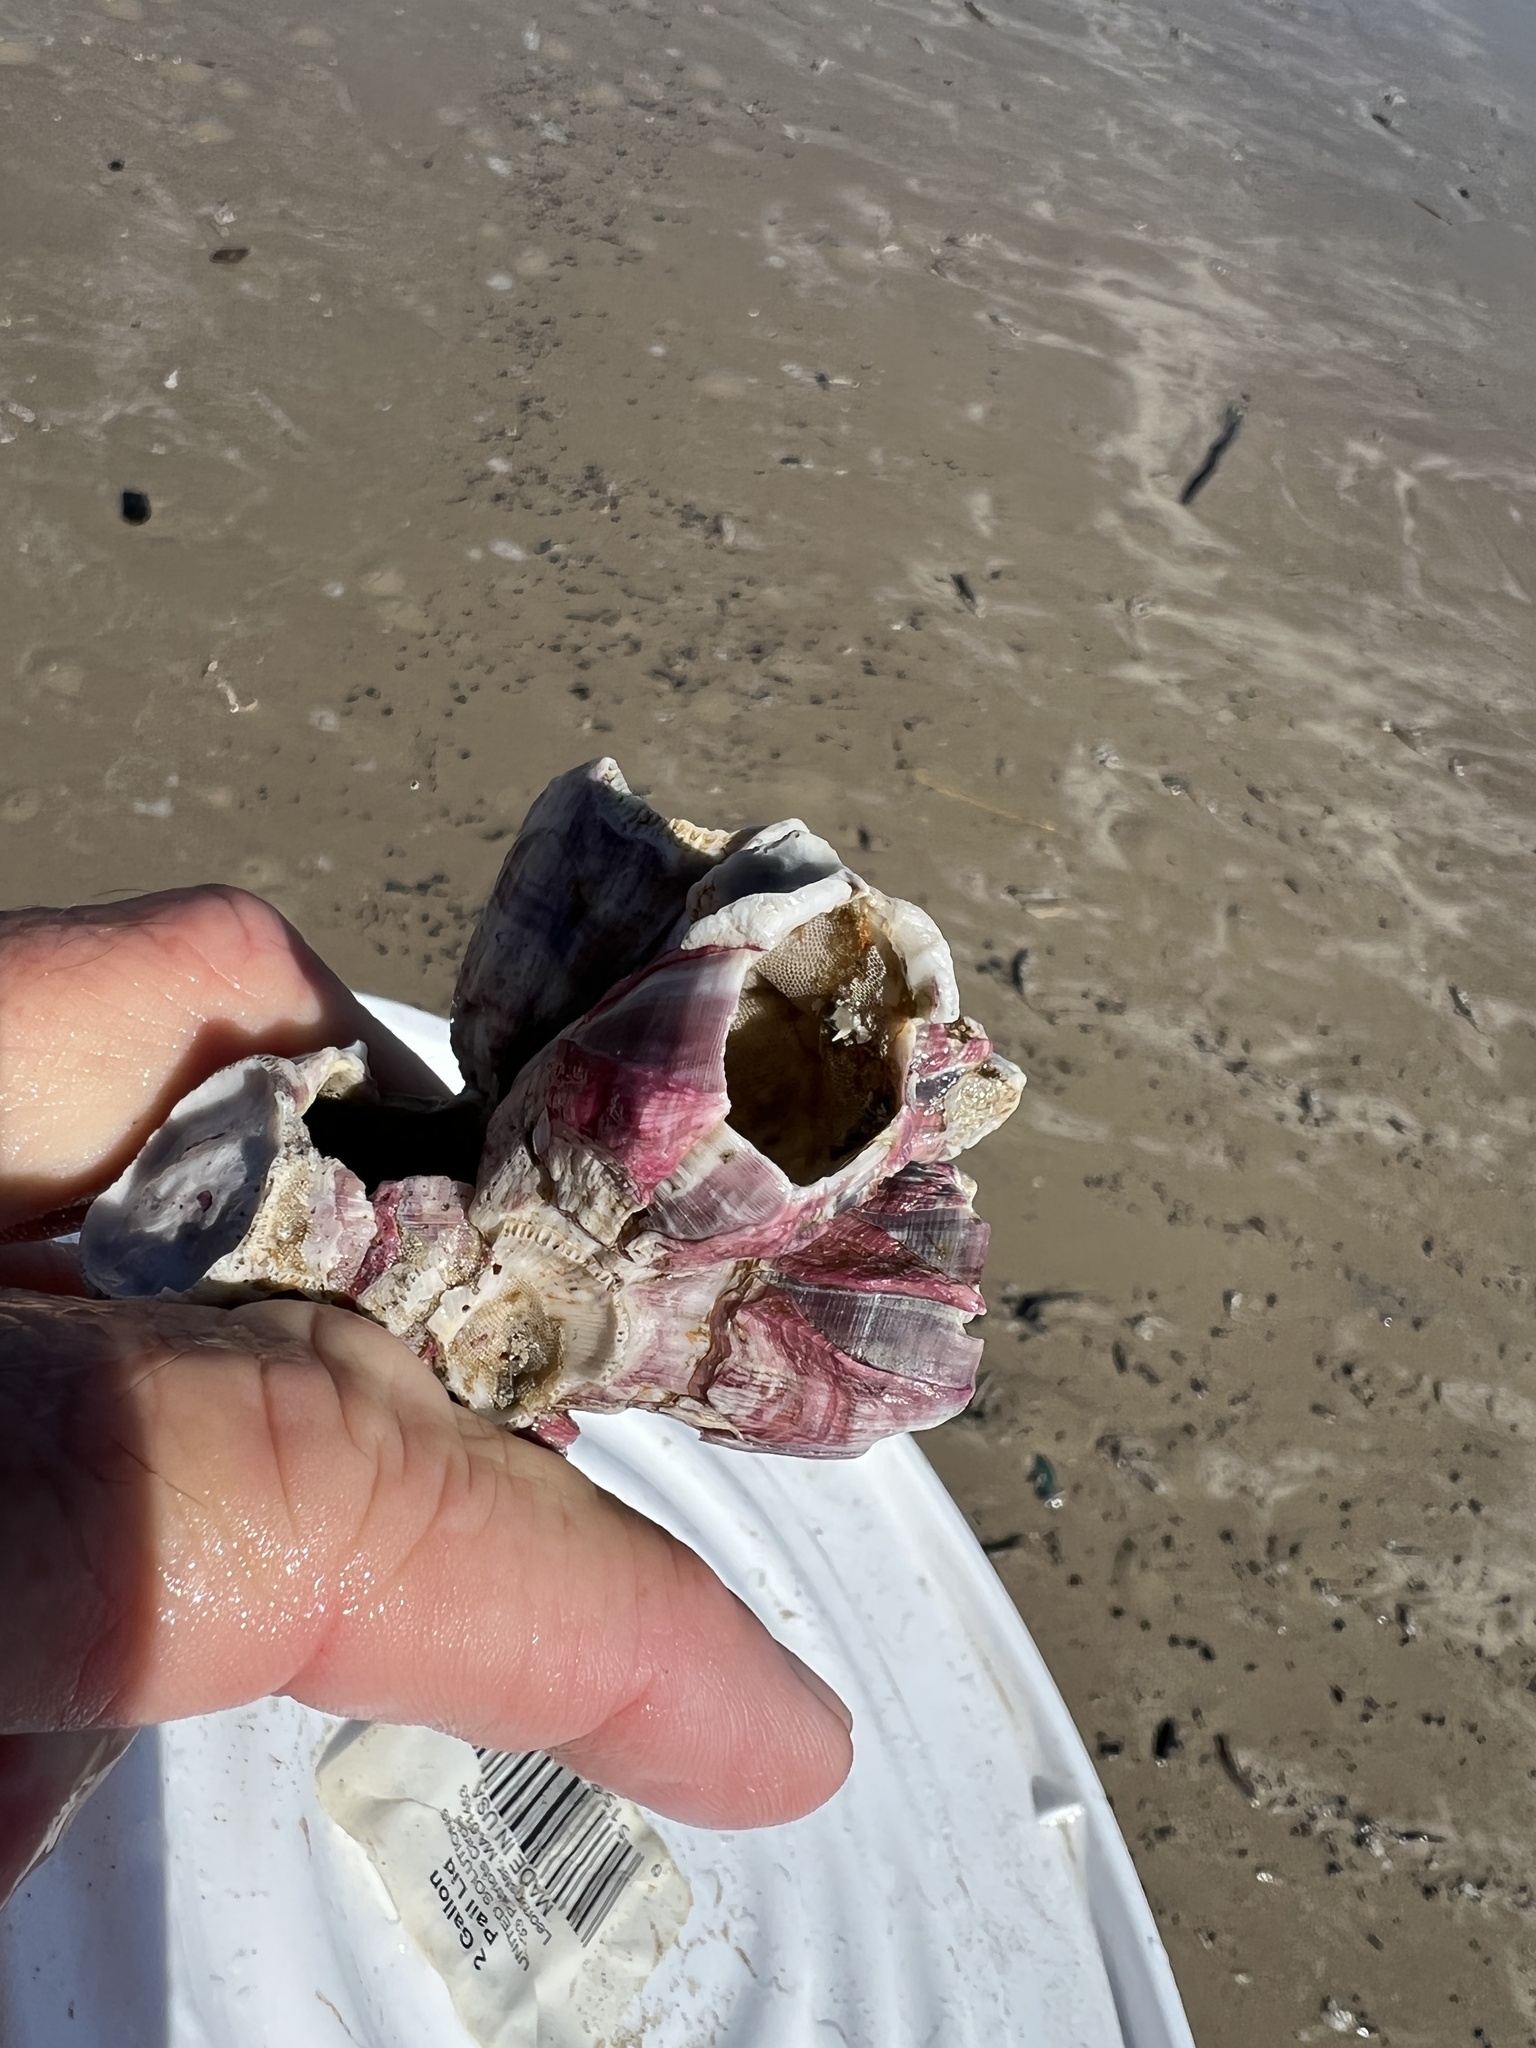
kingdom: Animalia
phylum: Arthropoda
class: Maxillopoda
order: Sessilia
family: Balanidae
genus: Megabalanus
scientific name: Megabalanus tintinnabulum
